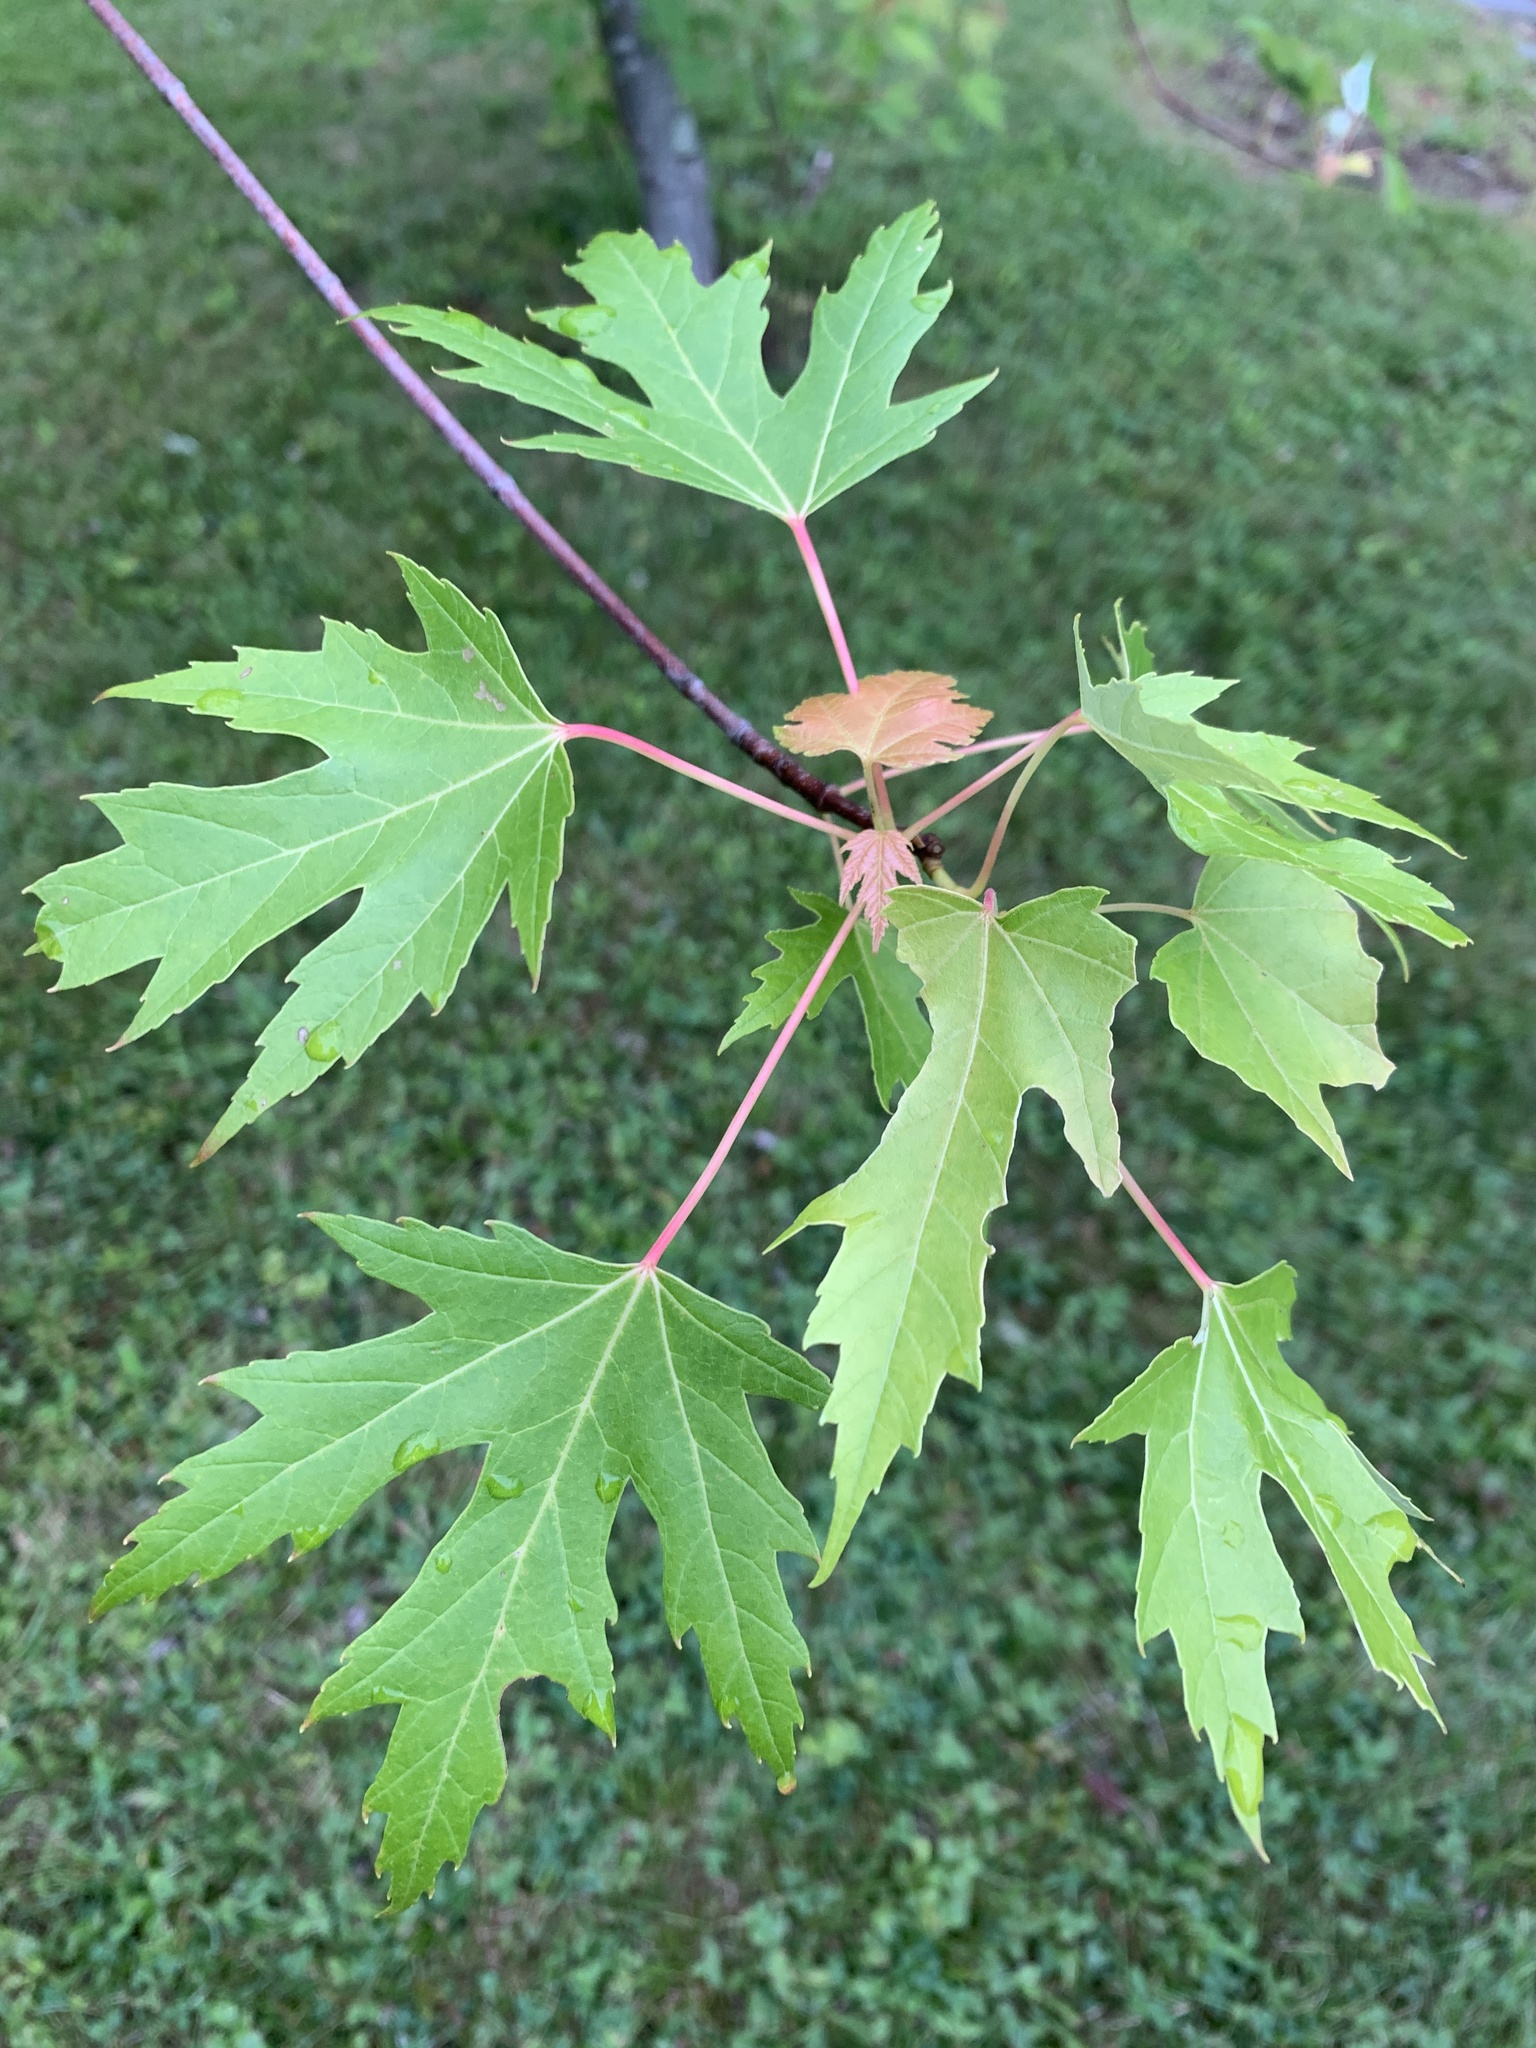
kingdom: Plantae
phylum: Tracheophyta
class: Magnoliopsida
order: Sapindales
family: Sapindaceae
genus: Acer
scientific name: Acer saccharinum
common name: Silver maple
